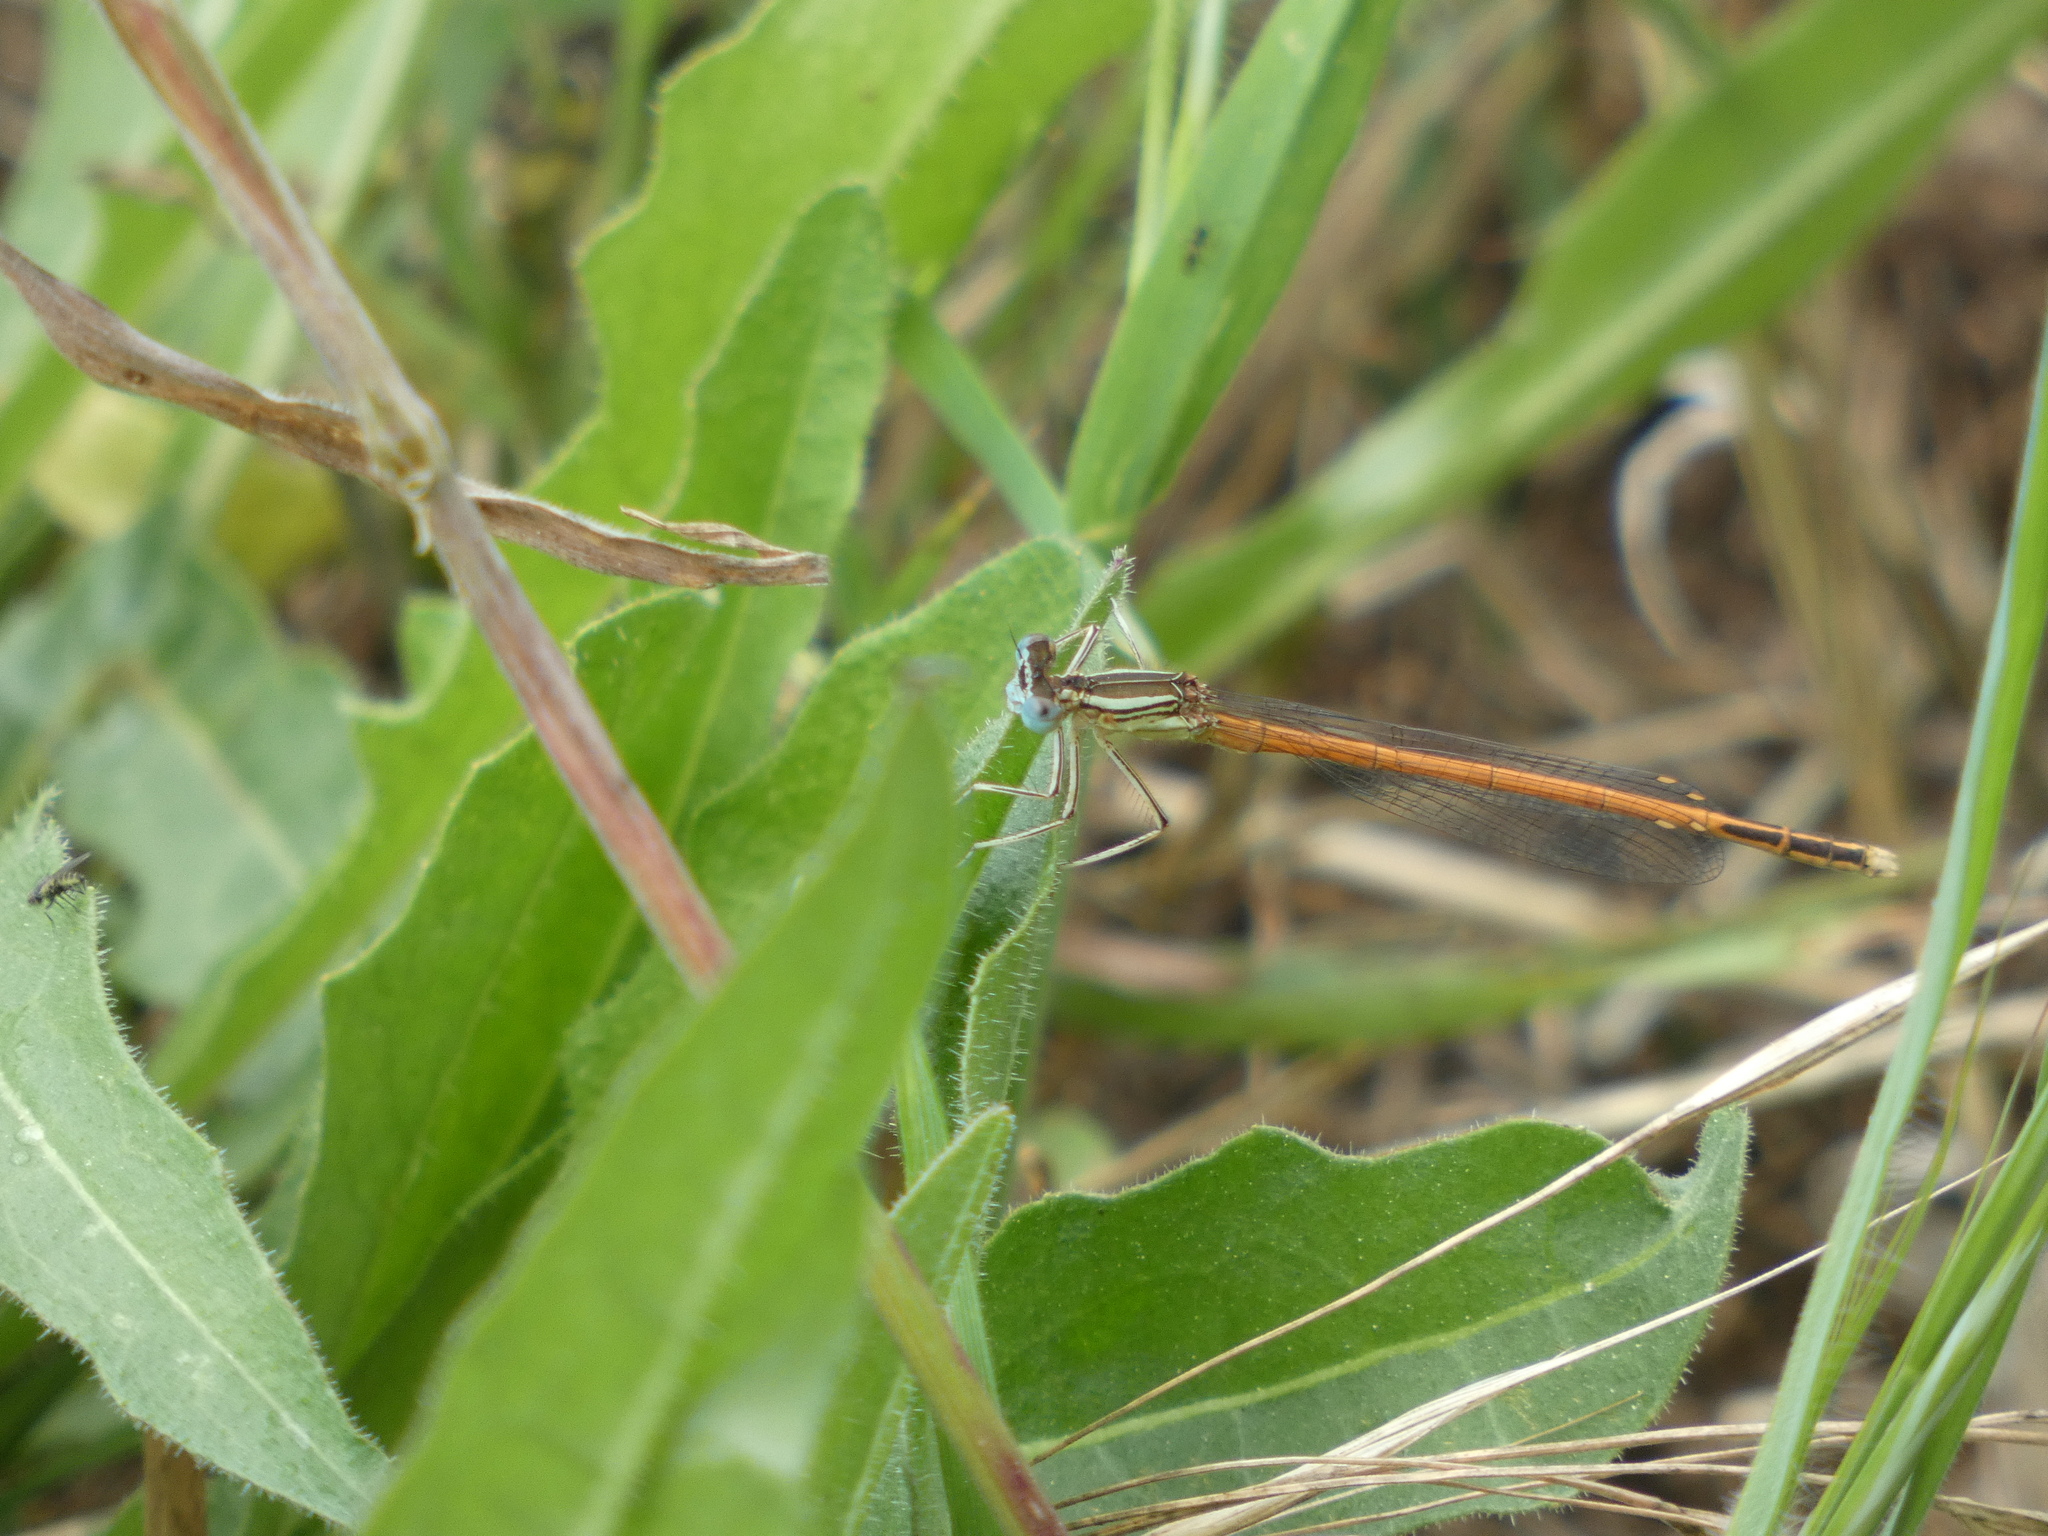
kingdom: Animalia
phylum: Arthropoda
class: Insecta
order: Odonata
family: Platycnemididae
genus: Platycnemis
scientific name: Platycnemis acutipennis
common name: Orange featherleg
